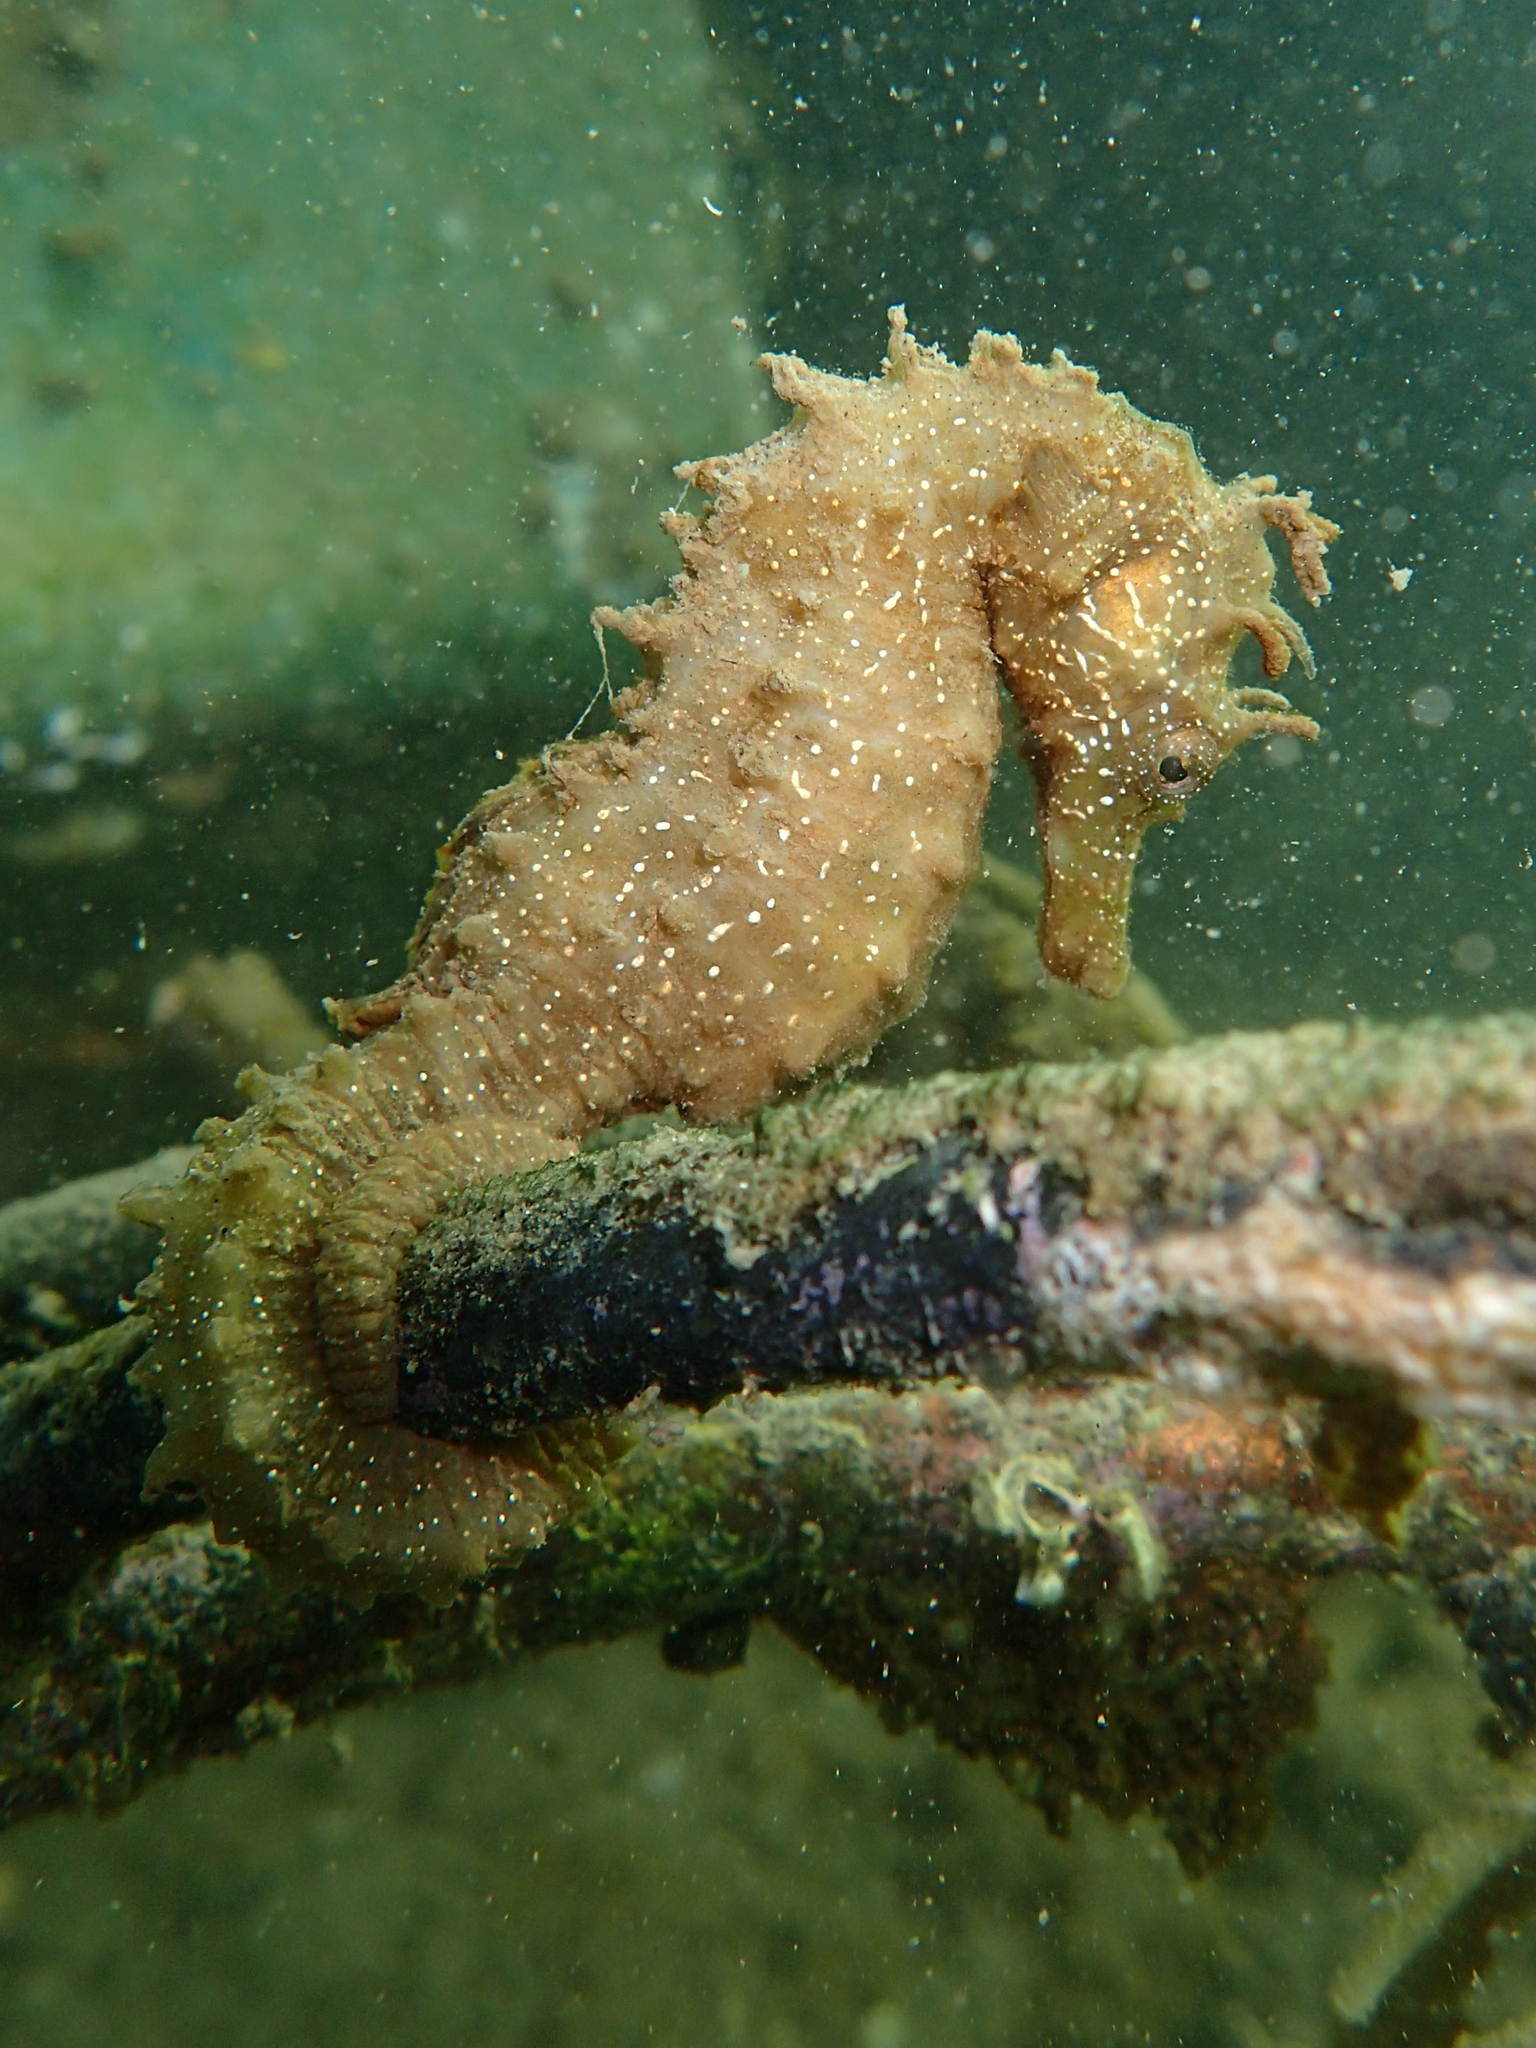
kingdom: Animalia
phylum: Chordata
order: Syngnathiformes
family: Syngnathidae
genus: Hippocampus
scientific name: Hippocampus guttulatus
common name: Long-snouted seahorse
